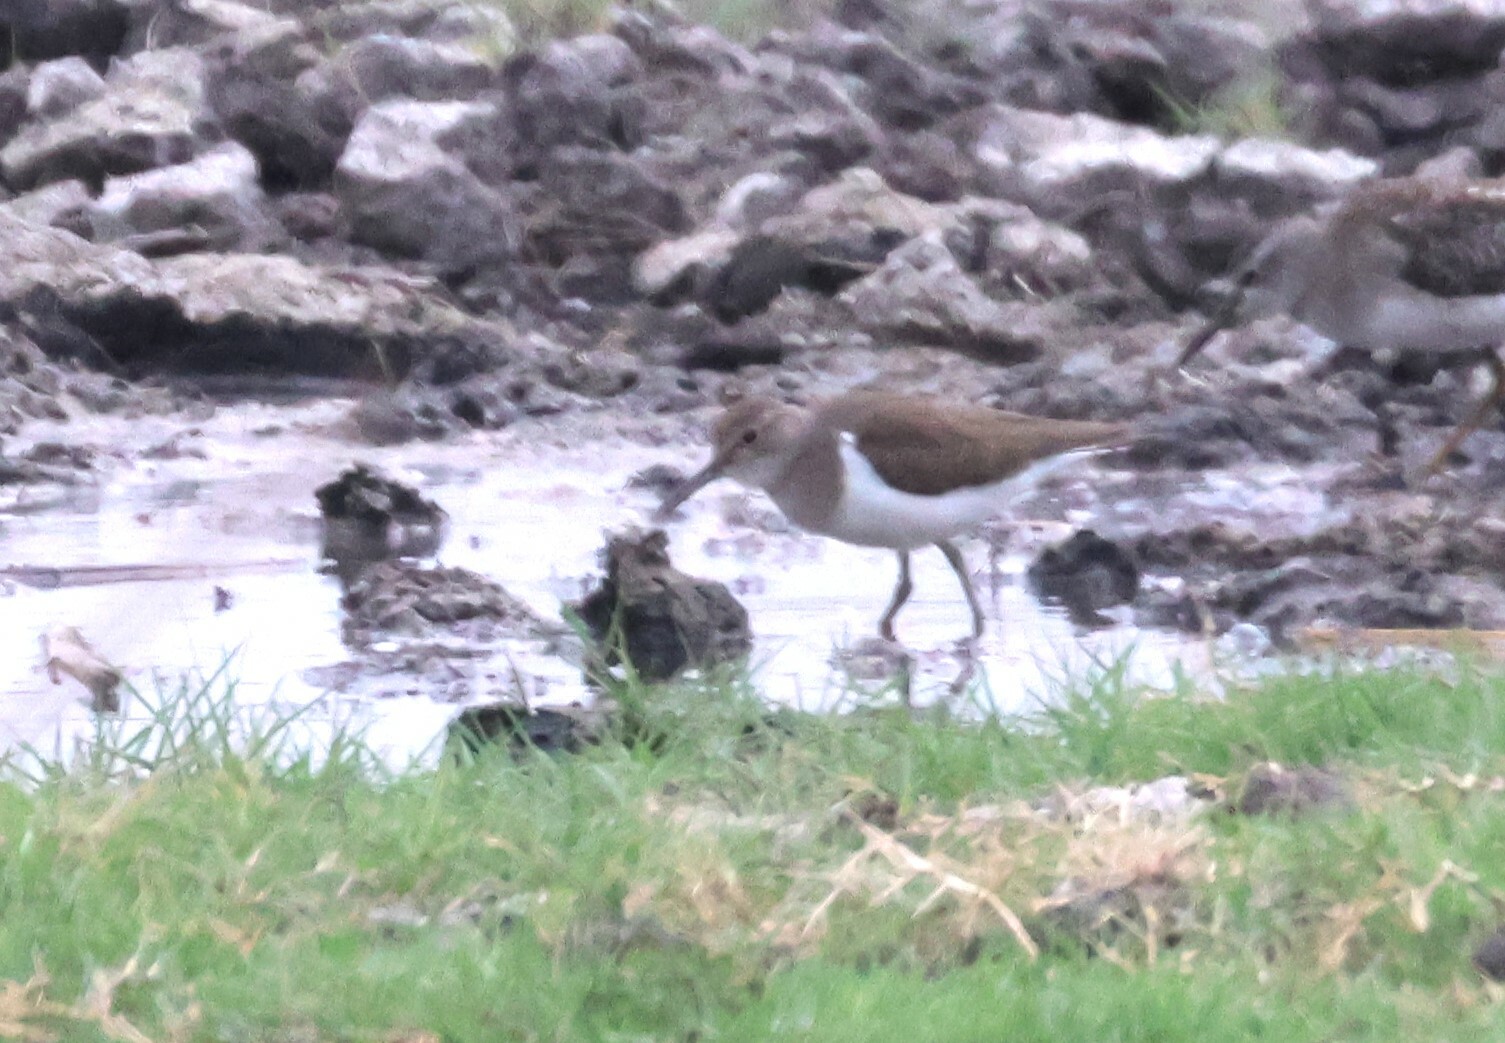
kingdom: Animalia
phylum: Chordata
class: Aves
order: Charadriiformes
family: Scolopacidae
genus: Actitis
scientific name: Actitis hypoleucos
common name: Common sandpiper
